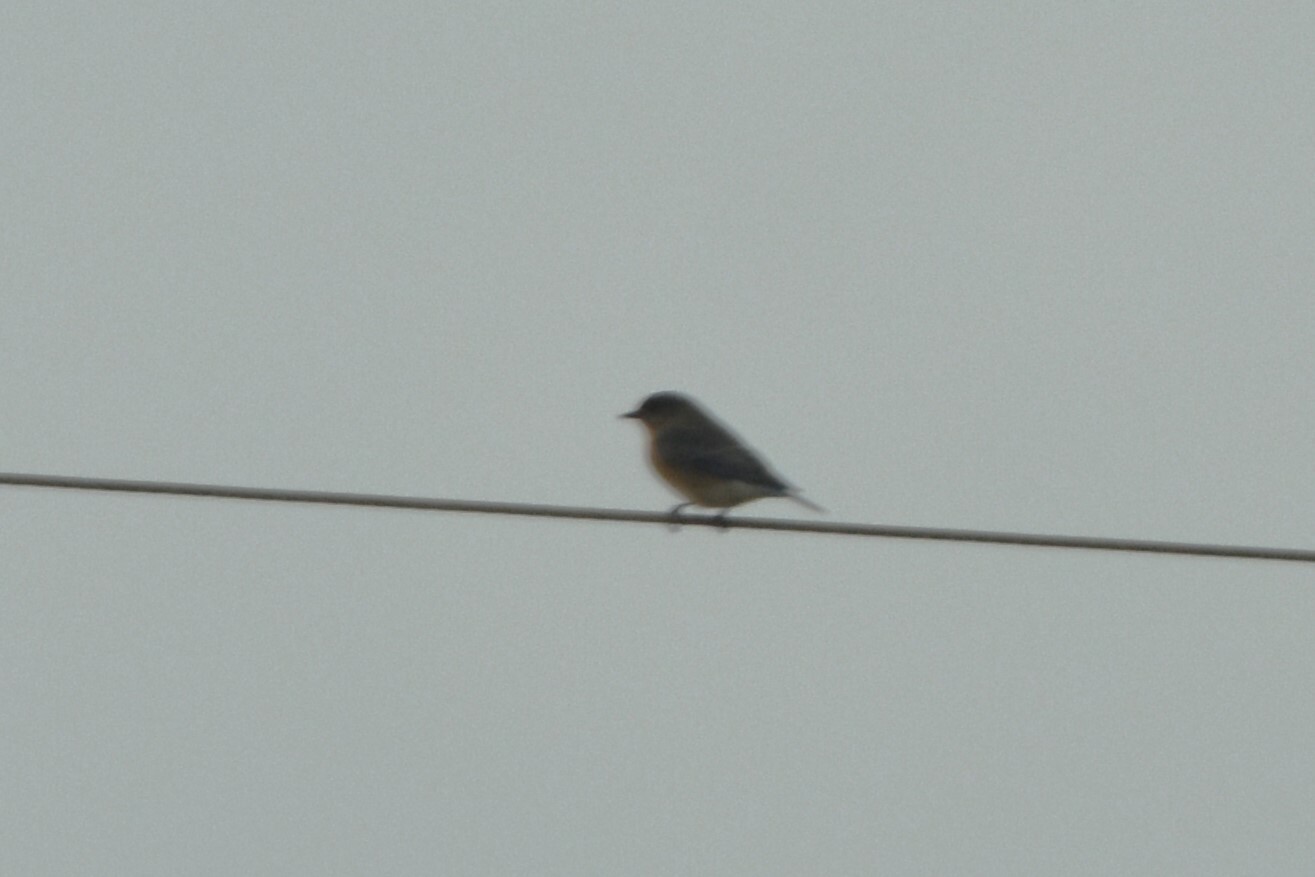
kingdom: Animalia
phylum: Chordata
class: Aves
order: Passeriformes
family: Turdidae
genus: Sialia
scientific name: Sialia sialis
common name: Eastern bluebird
